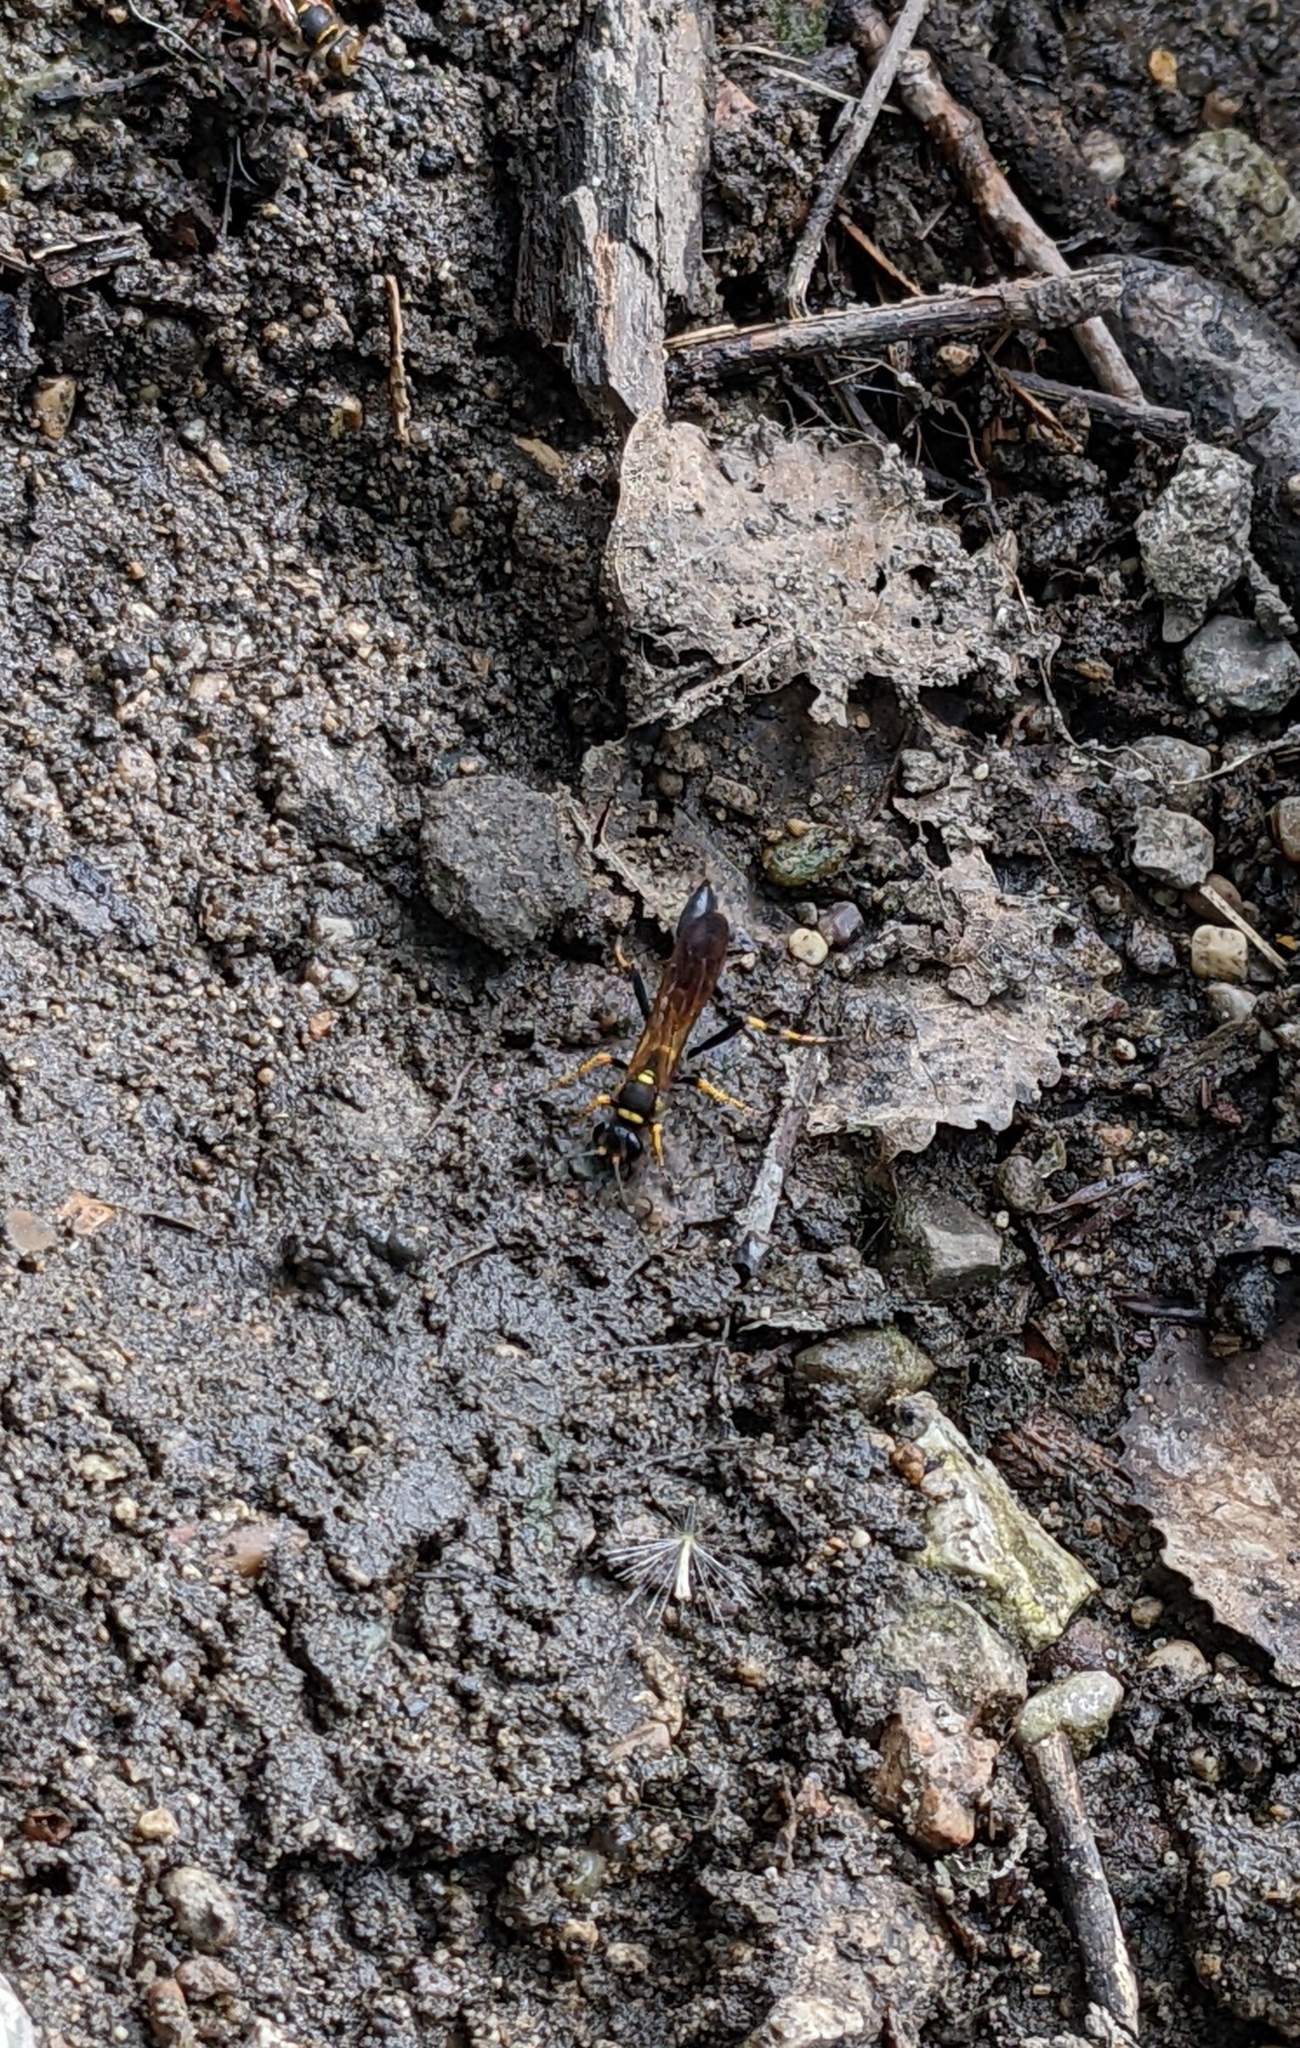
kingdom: Animalia
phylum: Arthropoda
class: Insecta
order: Hymenoptera
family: Sphecidae
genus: Sceliphron
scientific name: Sceliphron caementarium
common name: Mud dauber
